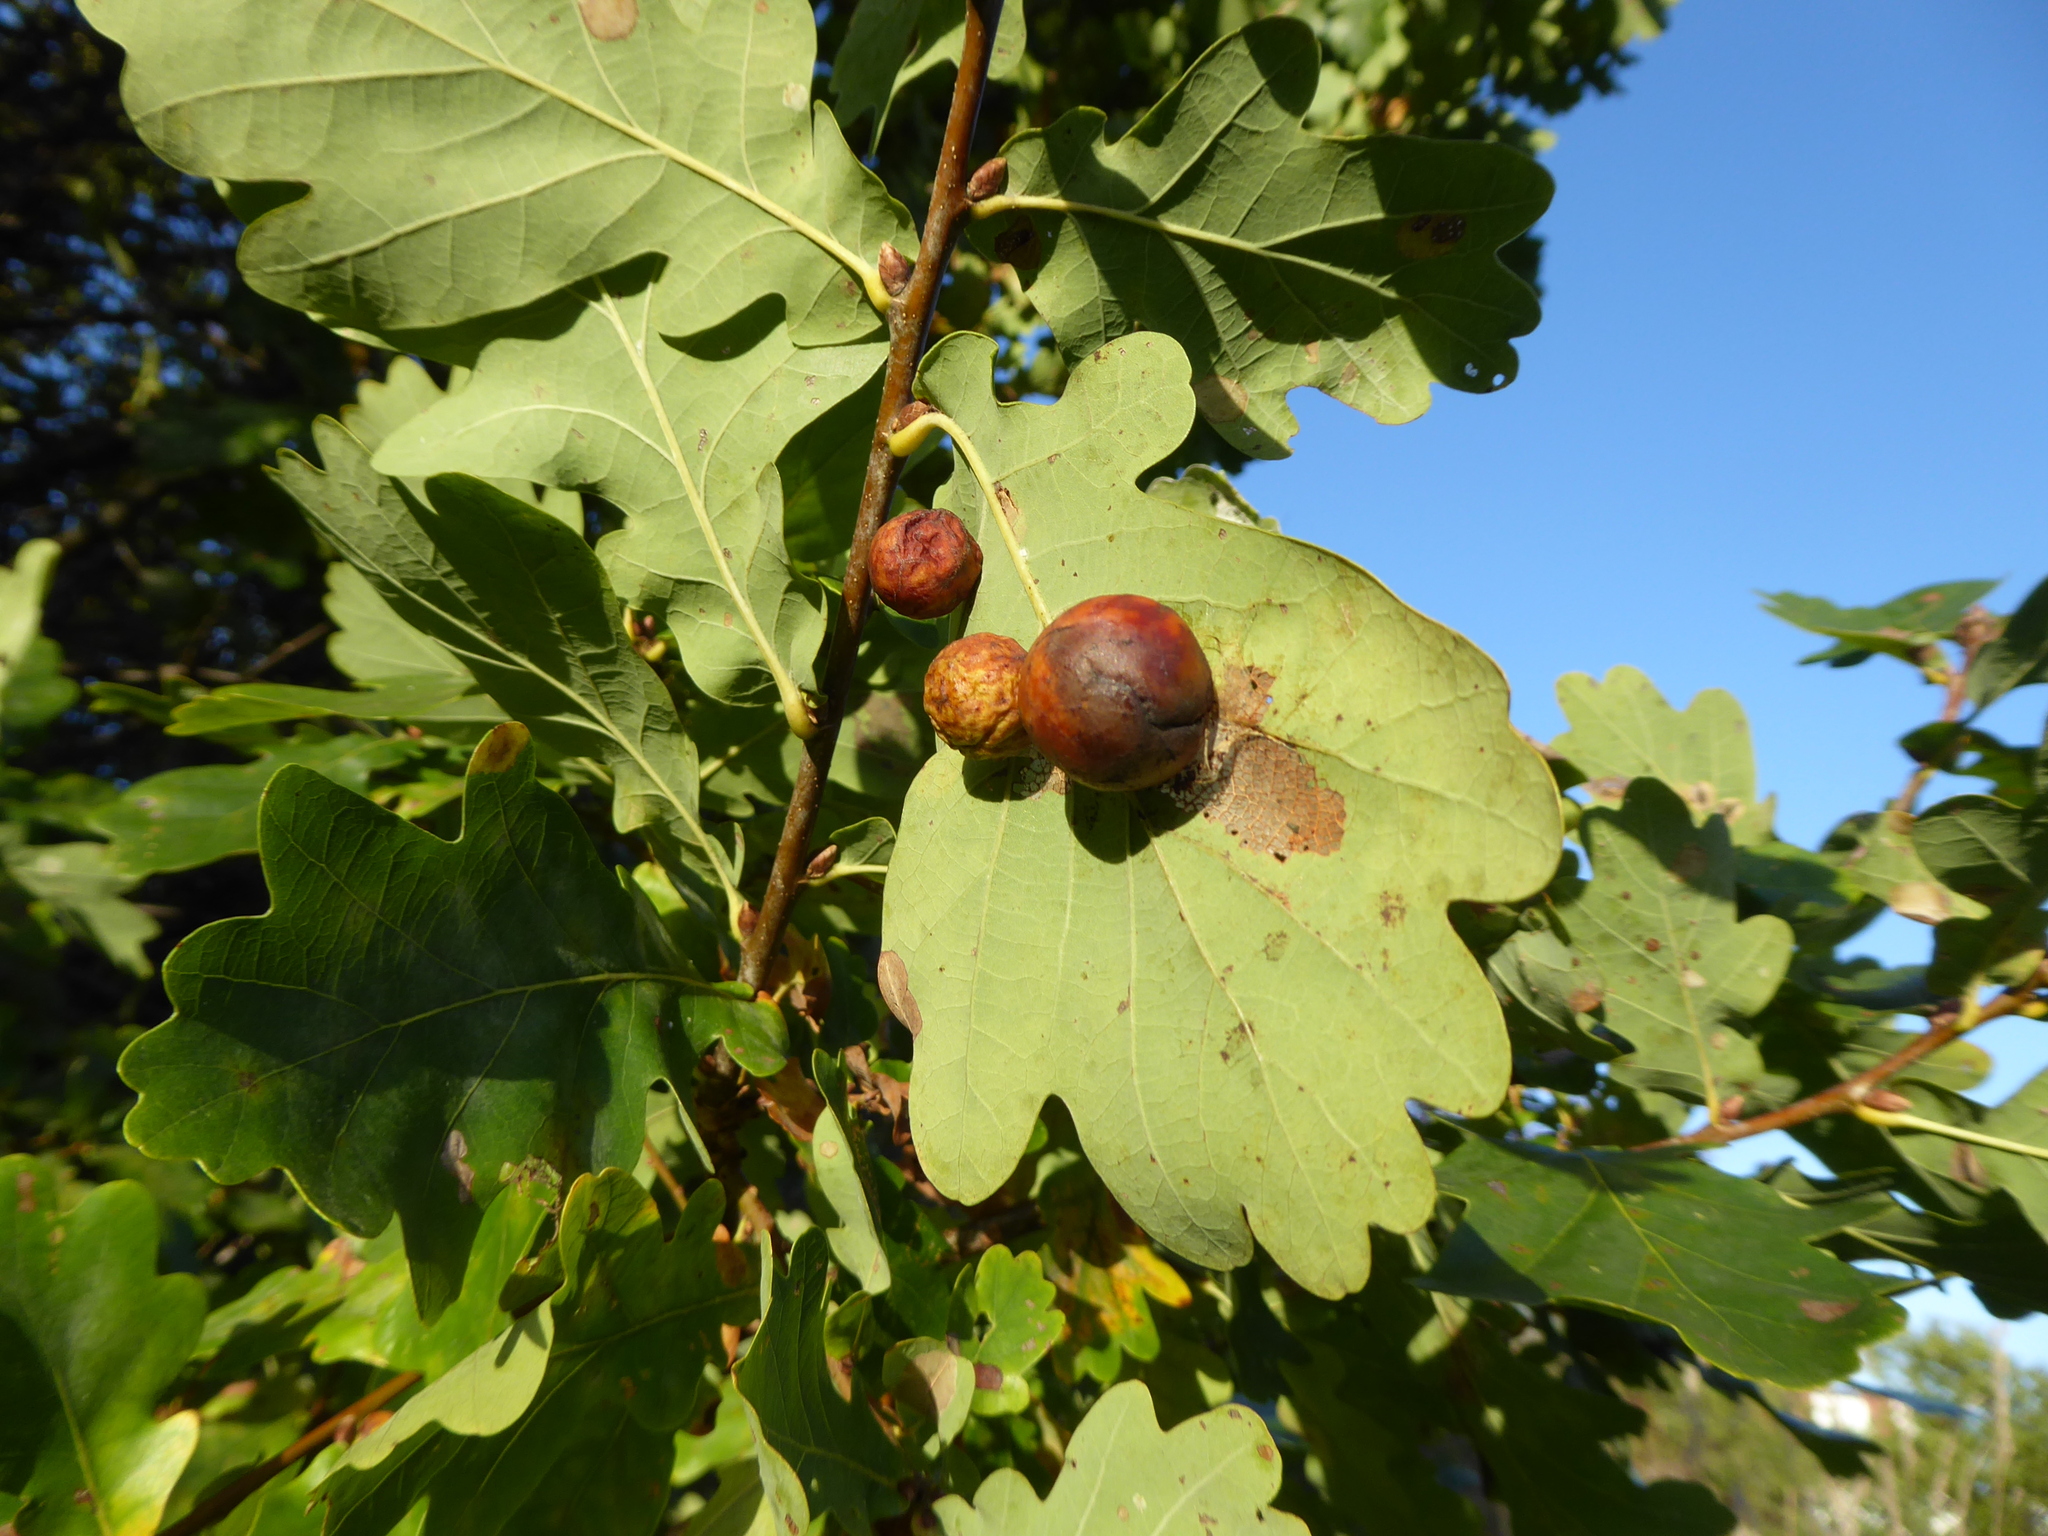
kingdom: Animalia
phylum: Arthropoda
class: Insecta
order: Hymenoptera
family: Cynipidae
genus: Cynips
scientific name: Cynips quercusfolii
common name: Cherry gall
